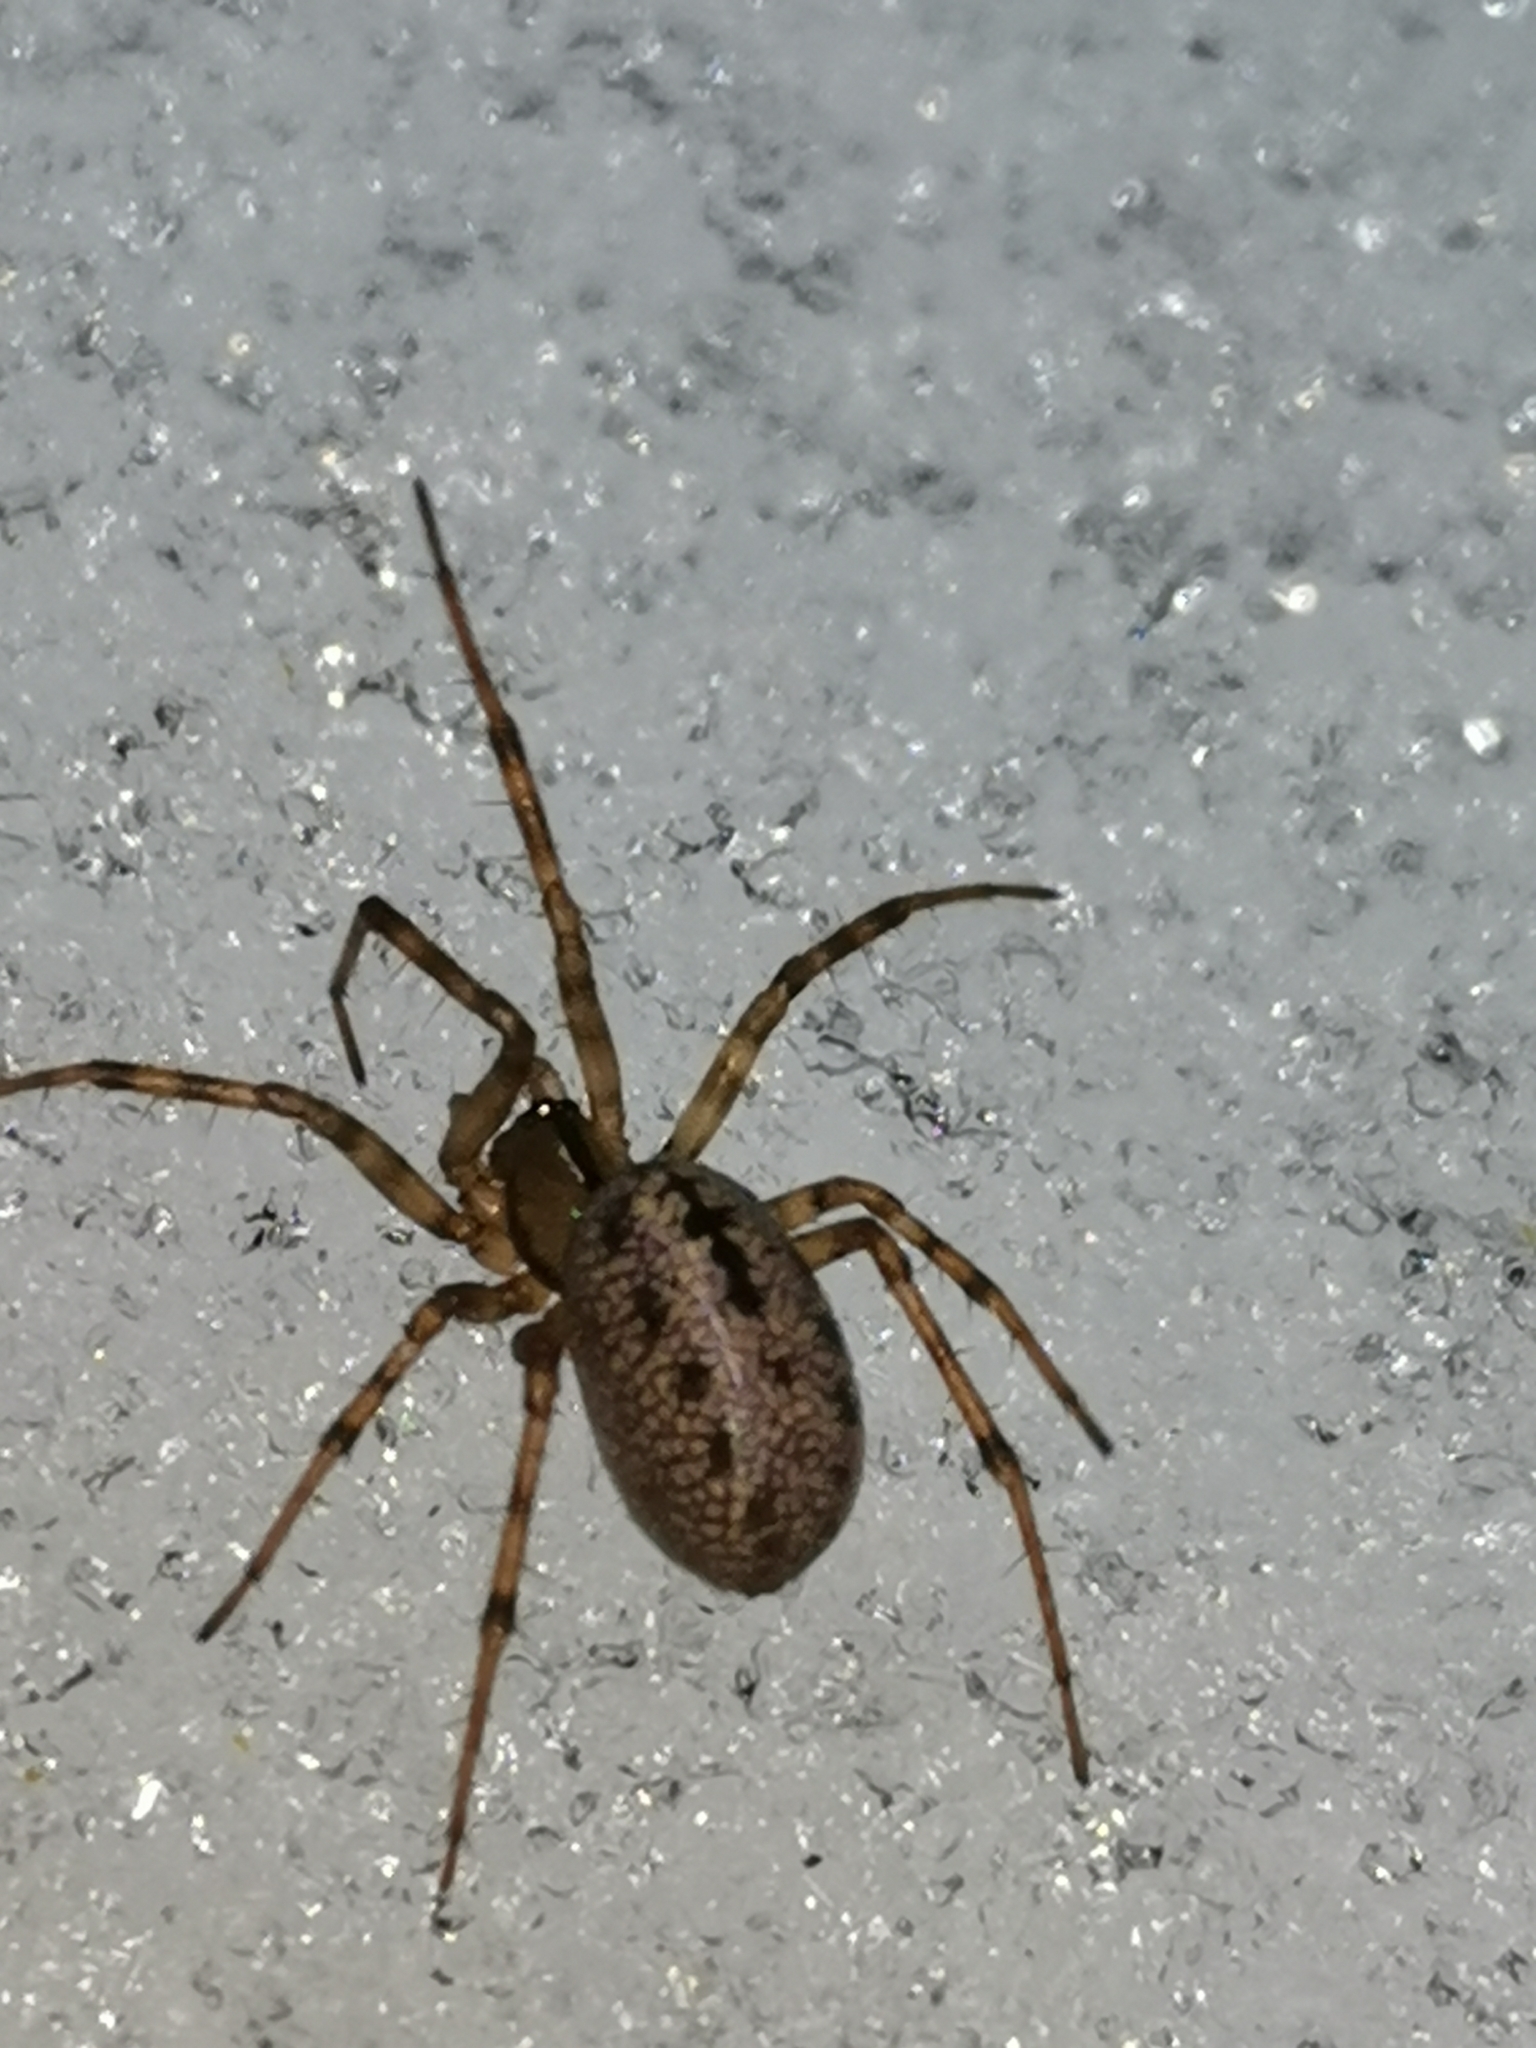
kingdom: Animalia
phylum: Arthropoda
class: Arachnida
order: Araneae
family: Linyphiidae
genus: Stemonyphantes
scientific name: Stemonyphantes lineatus
